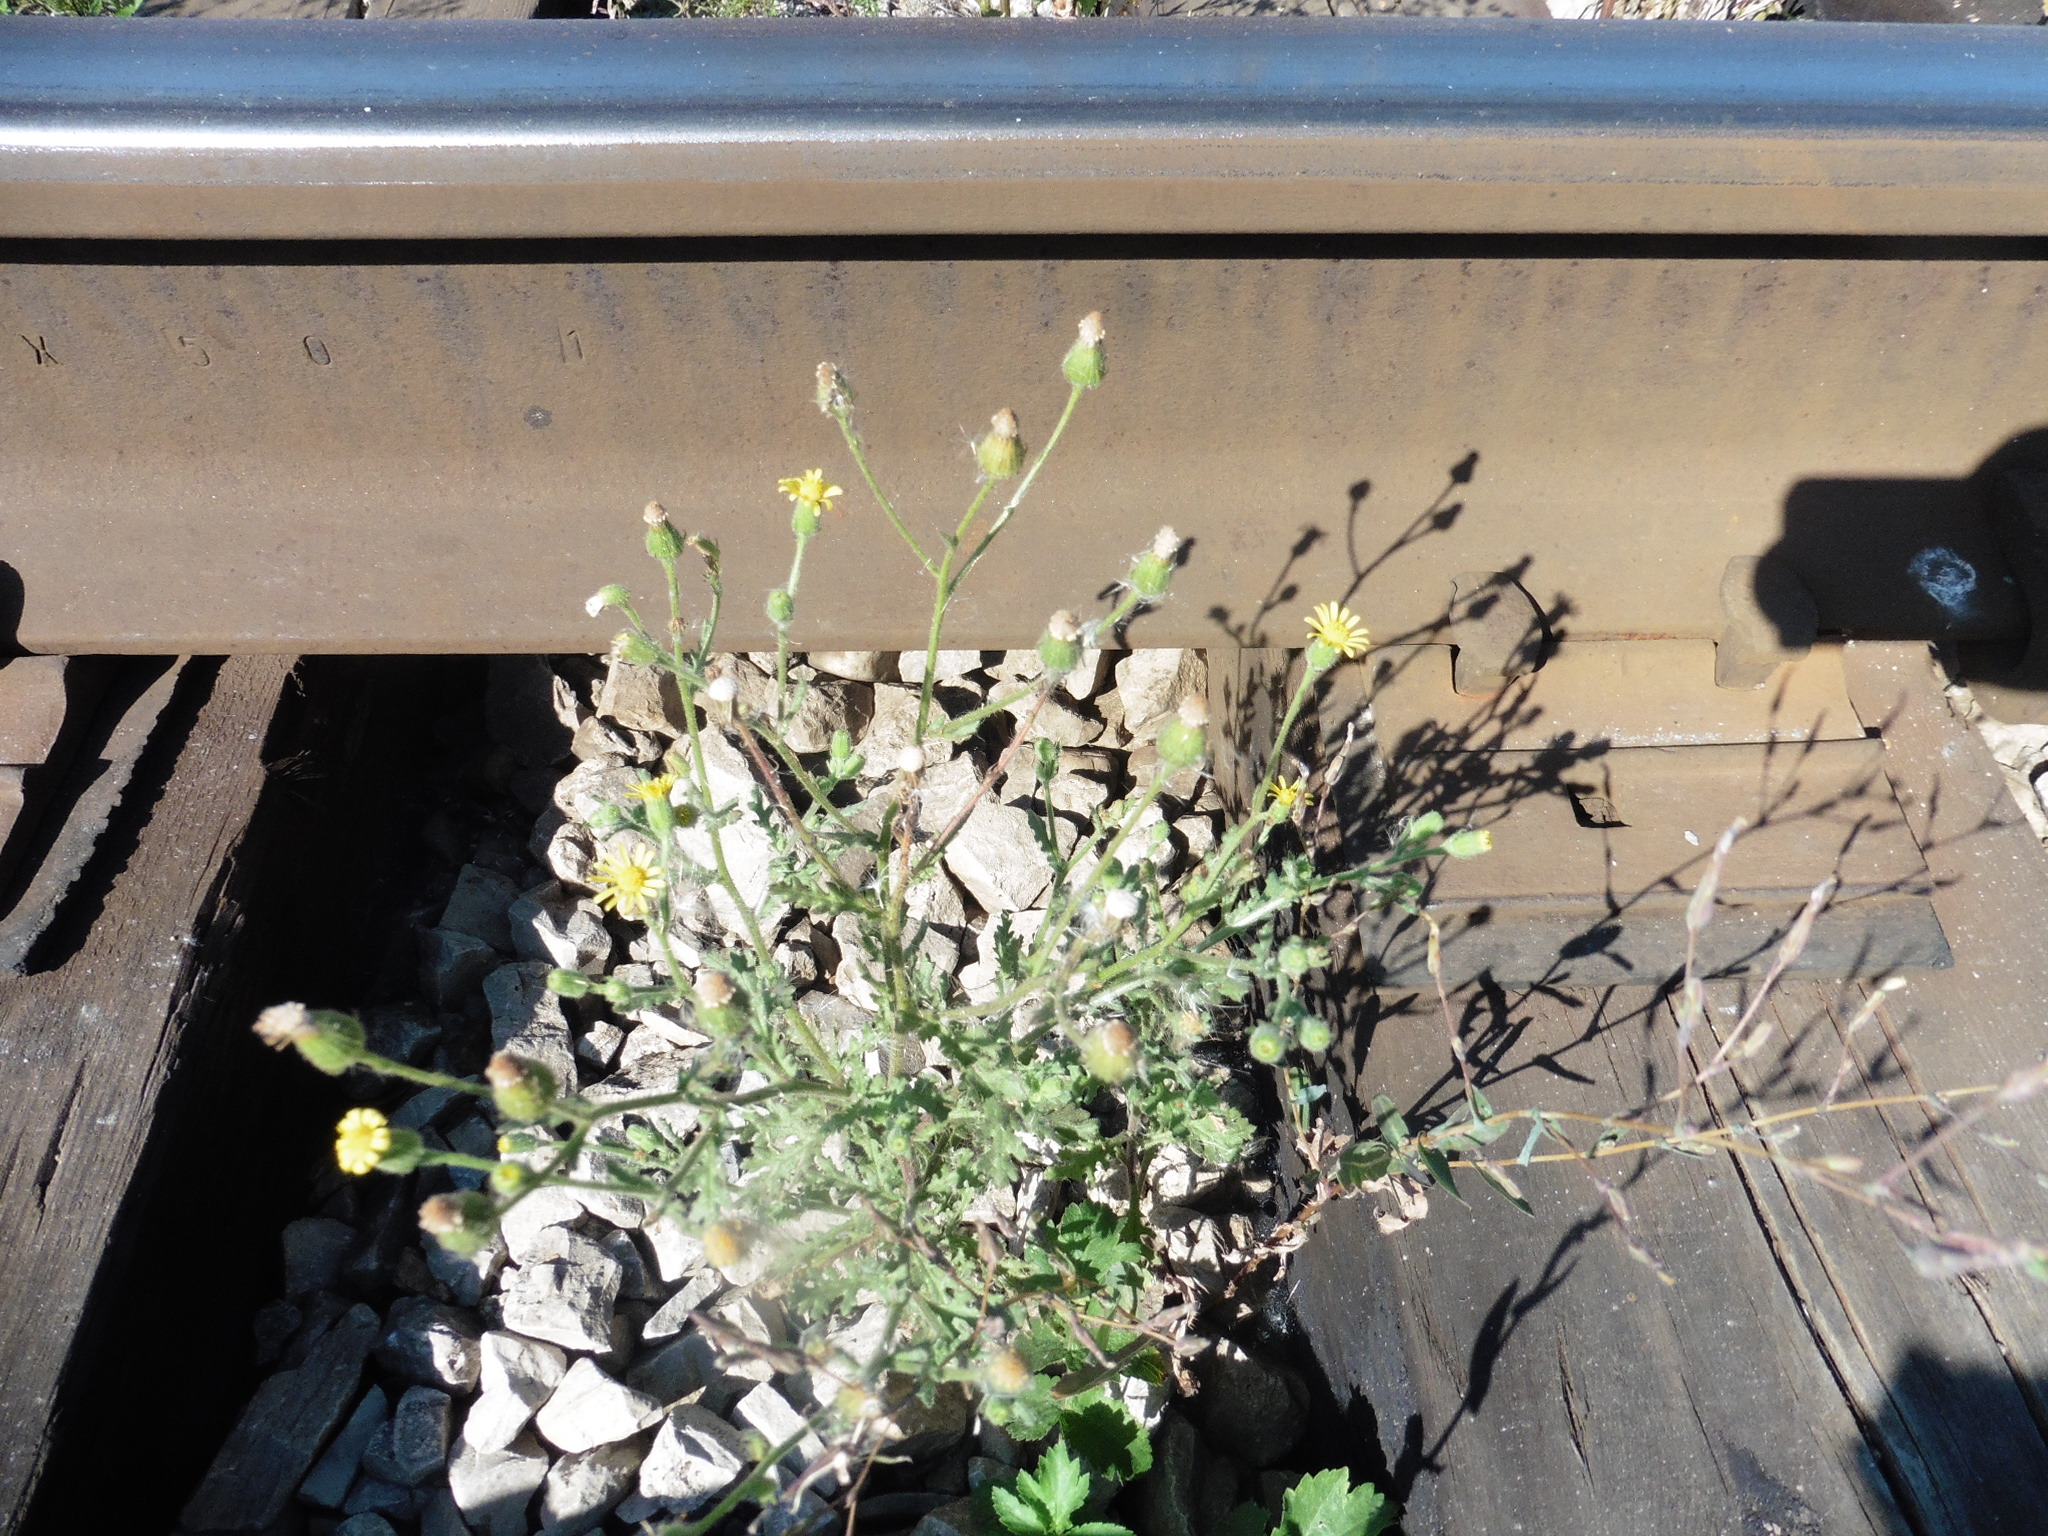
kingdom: Plantae
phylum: Tracheophyta
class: Magnoliopsida
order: Asterales
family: Asteraceae
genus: Senecio
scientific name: Senecio viscosus
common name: Sticky groundsel
